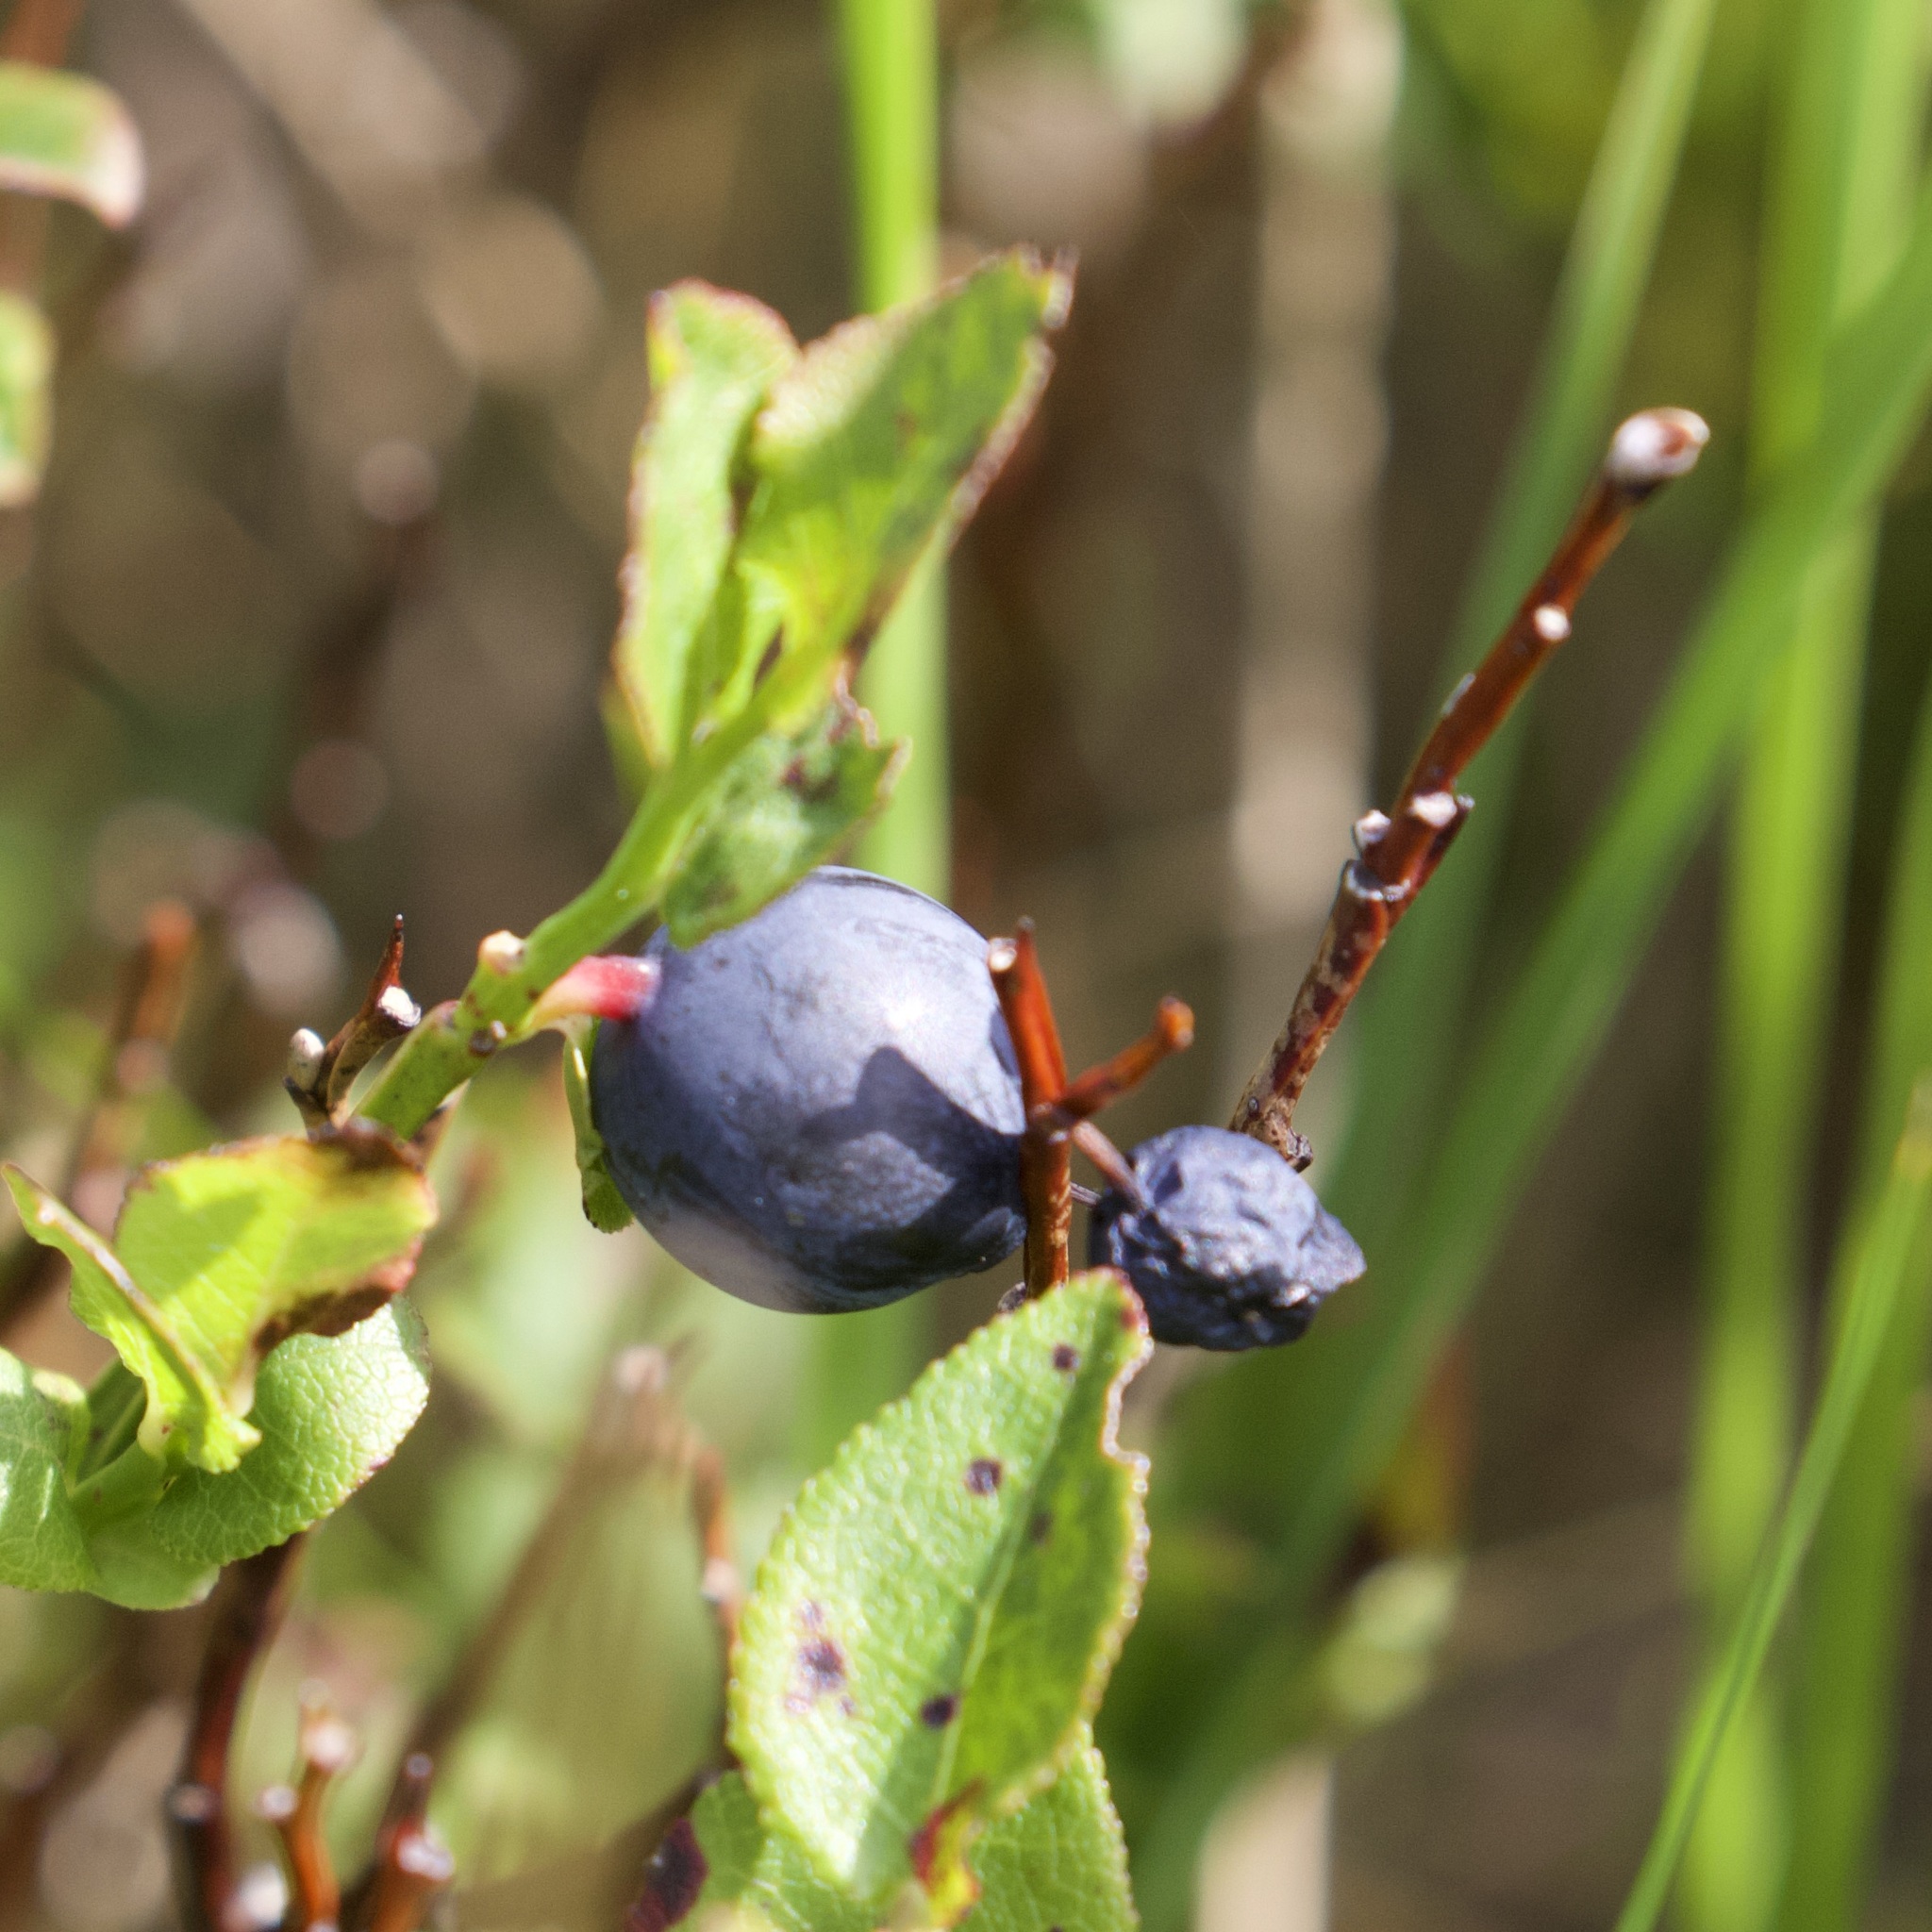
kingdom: Plantae
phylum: Tracheophyta
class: Magnoliopsida
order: Ericales
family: Ericaceae
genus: Vaccinium
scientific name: Vaccinium myrtillus
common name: Bilberry
